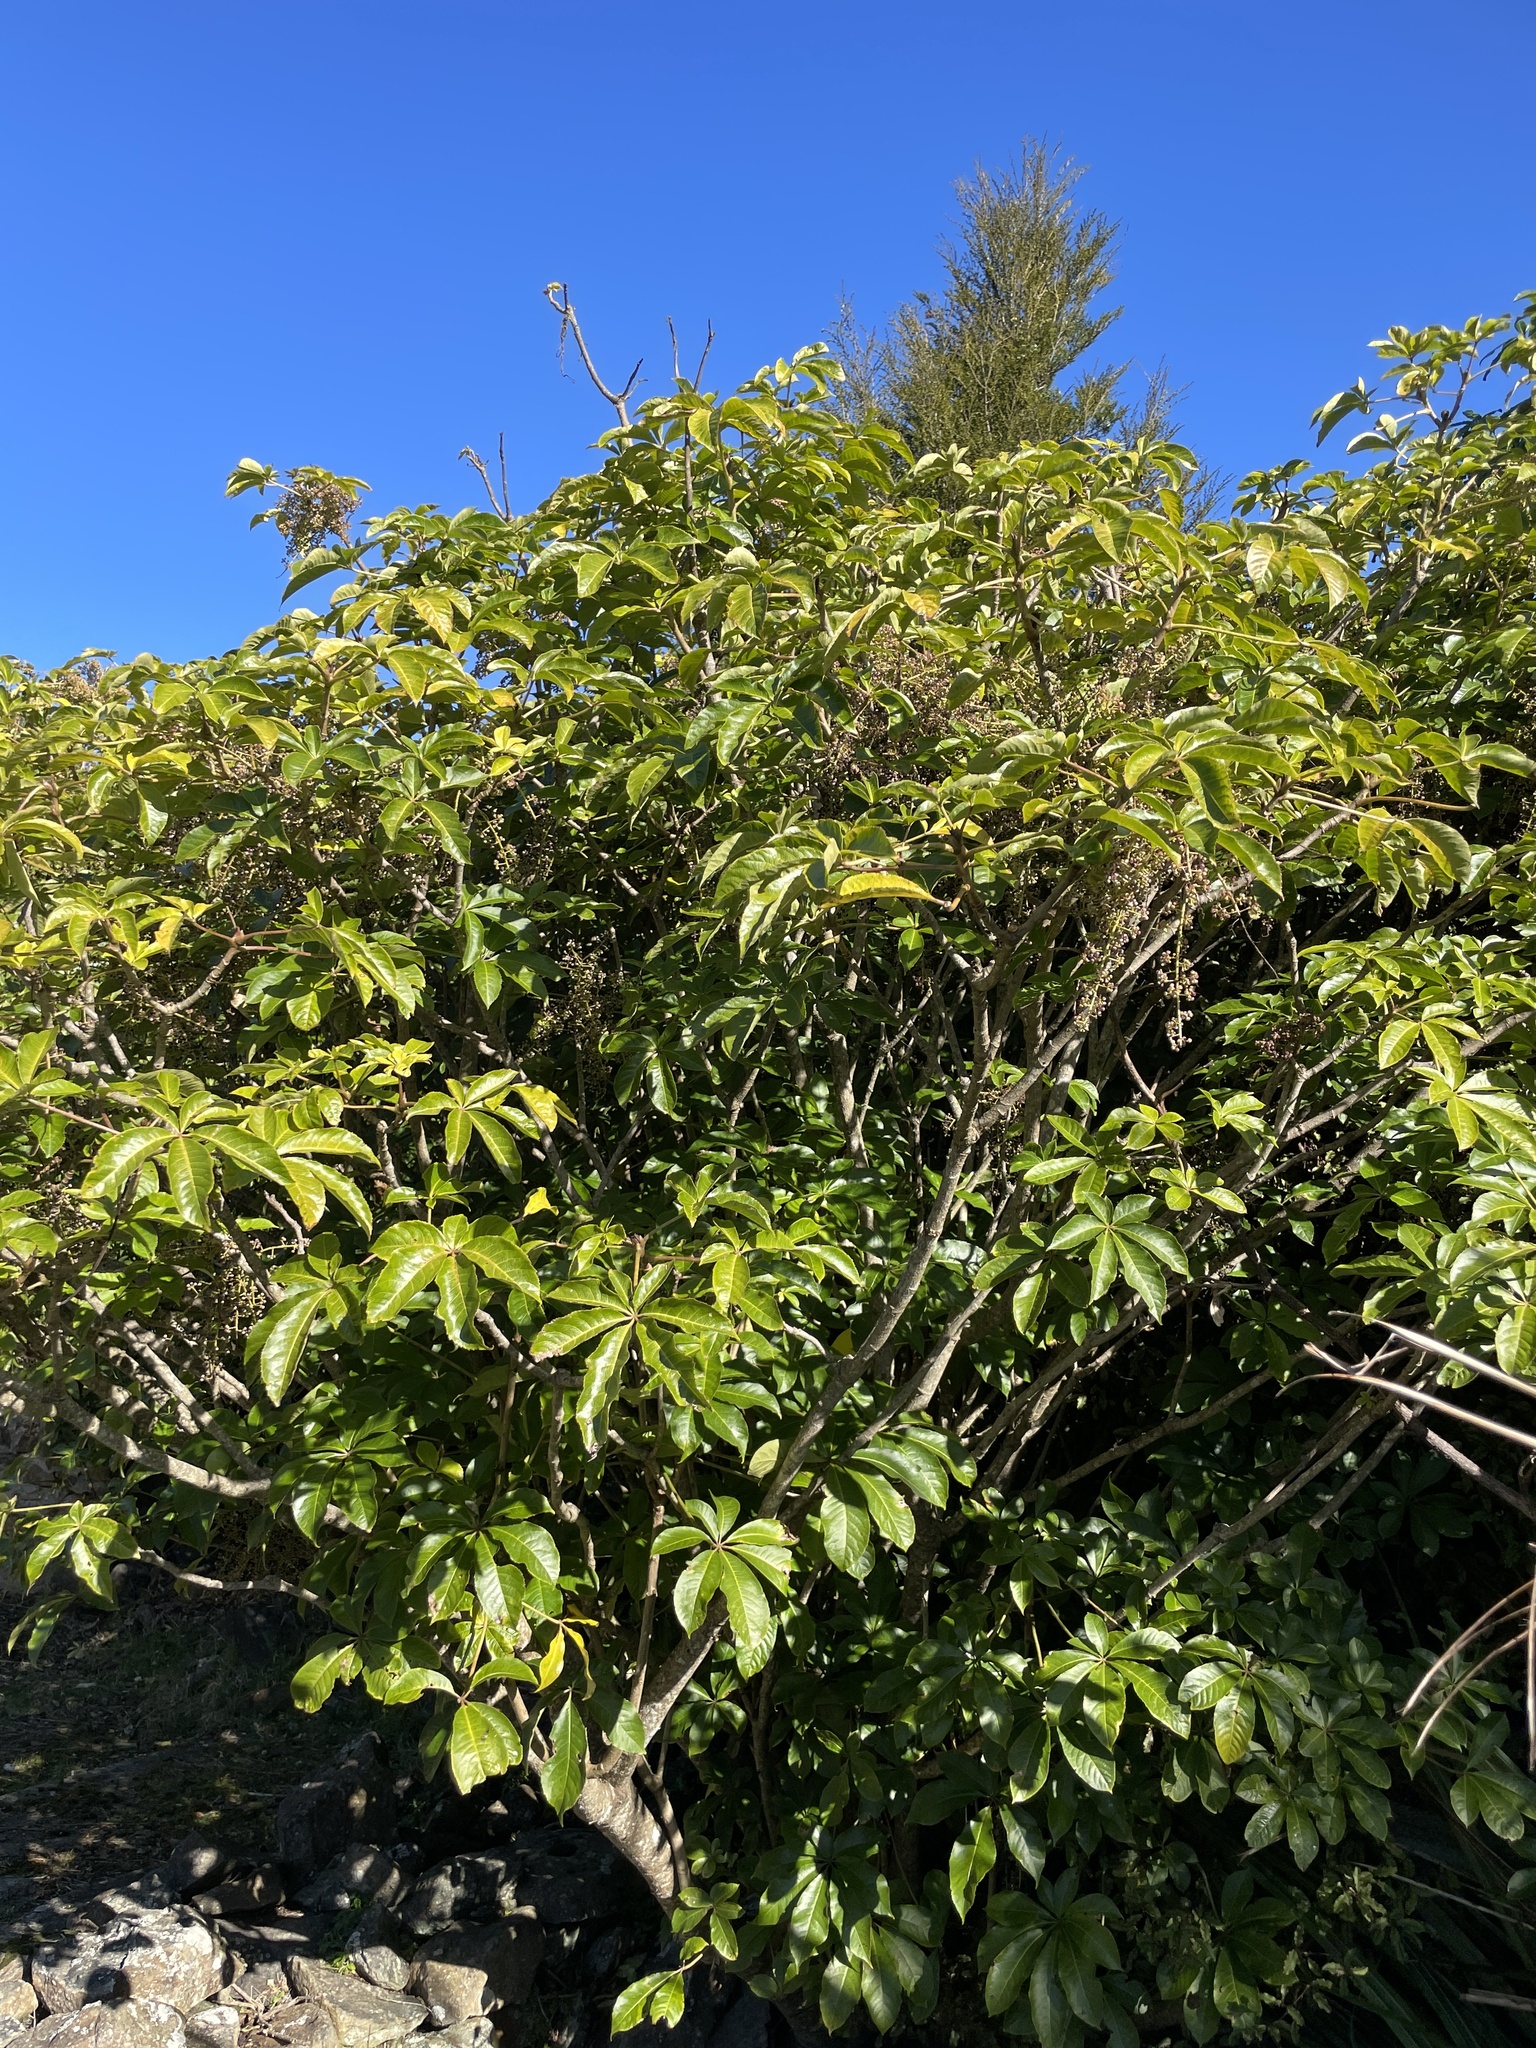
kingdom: Plantae
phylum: Tracheophyta
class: Magnoliopsida
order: Apiales
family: Araliaceae
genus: Schefflera
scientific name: Schefflera digitata
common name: Pate
